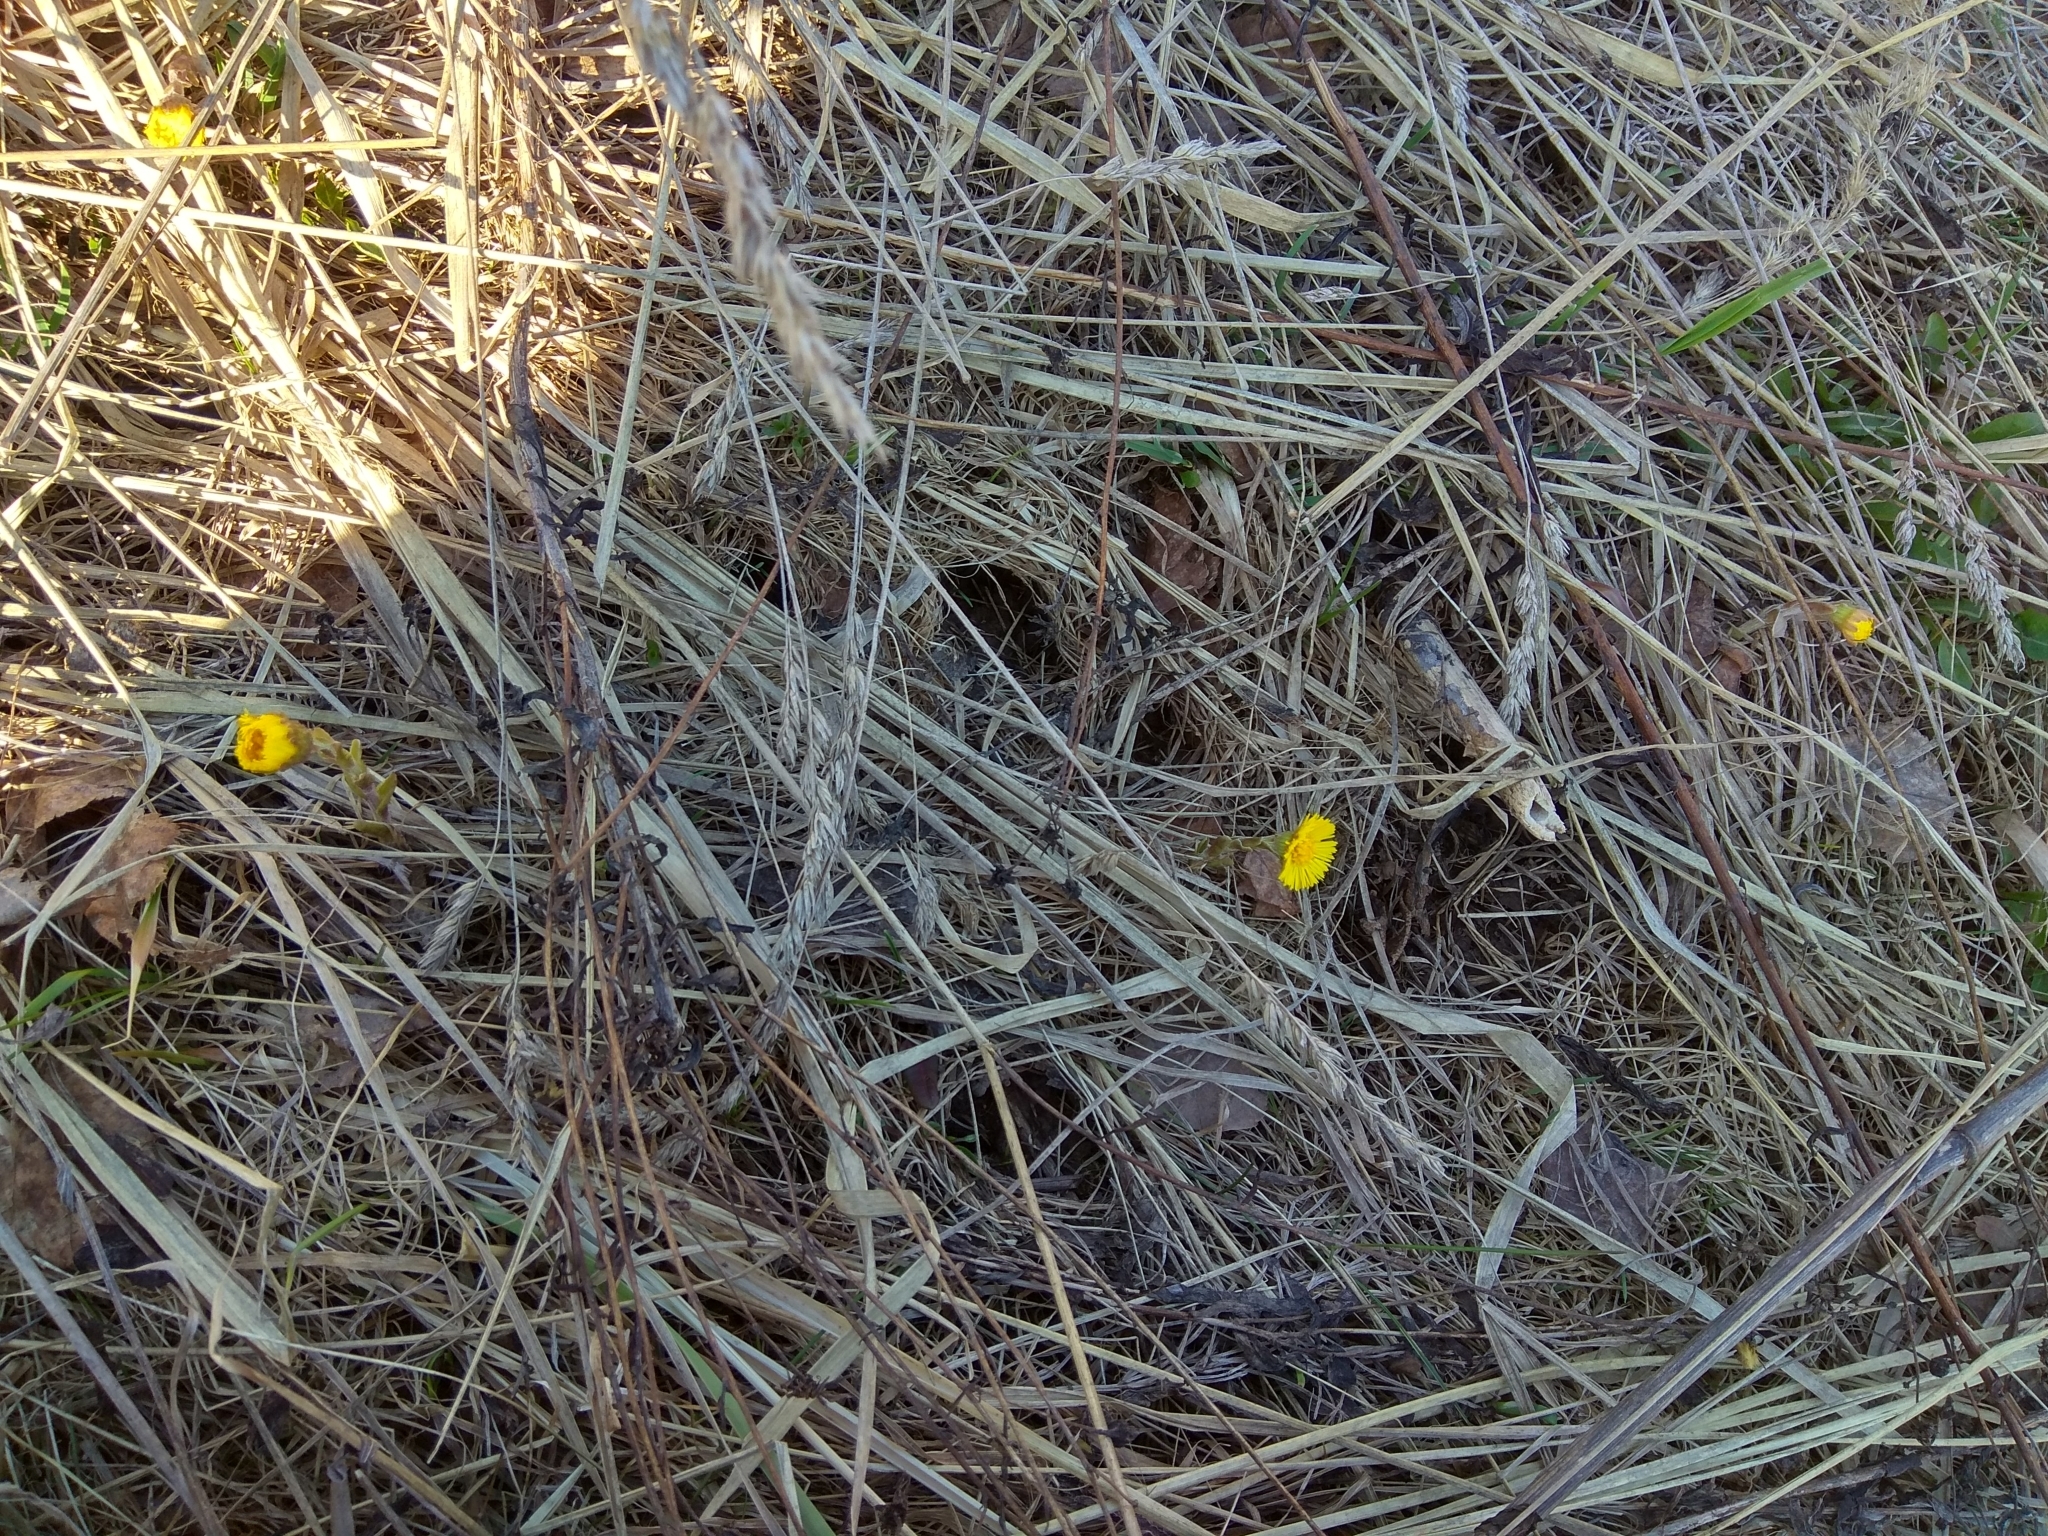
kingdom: Plantae
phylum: Tracheophyta
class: Magnoliopsida
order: Asterales
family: Asteraceae
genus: Tussilago
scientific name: Tussilago farfara
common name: Coltsfoot
